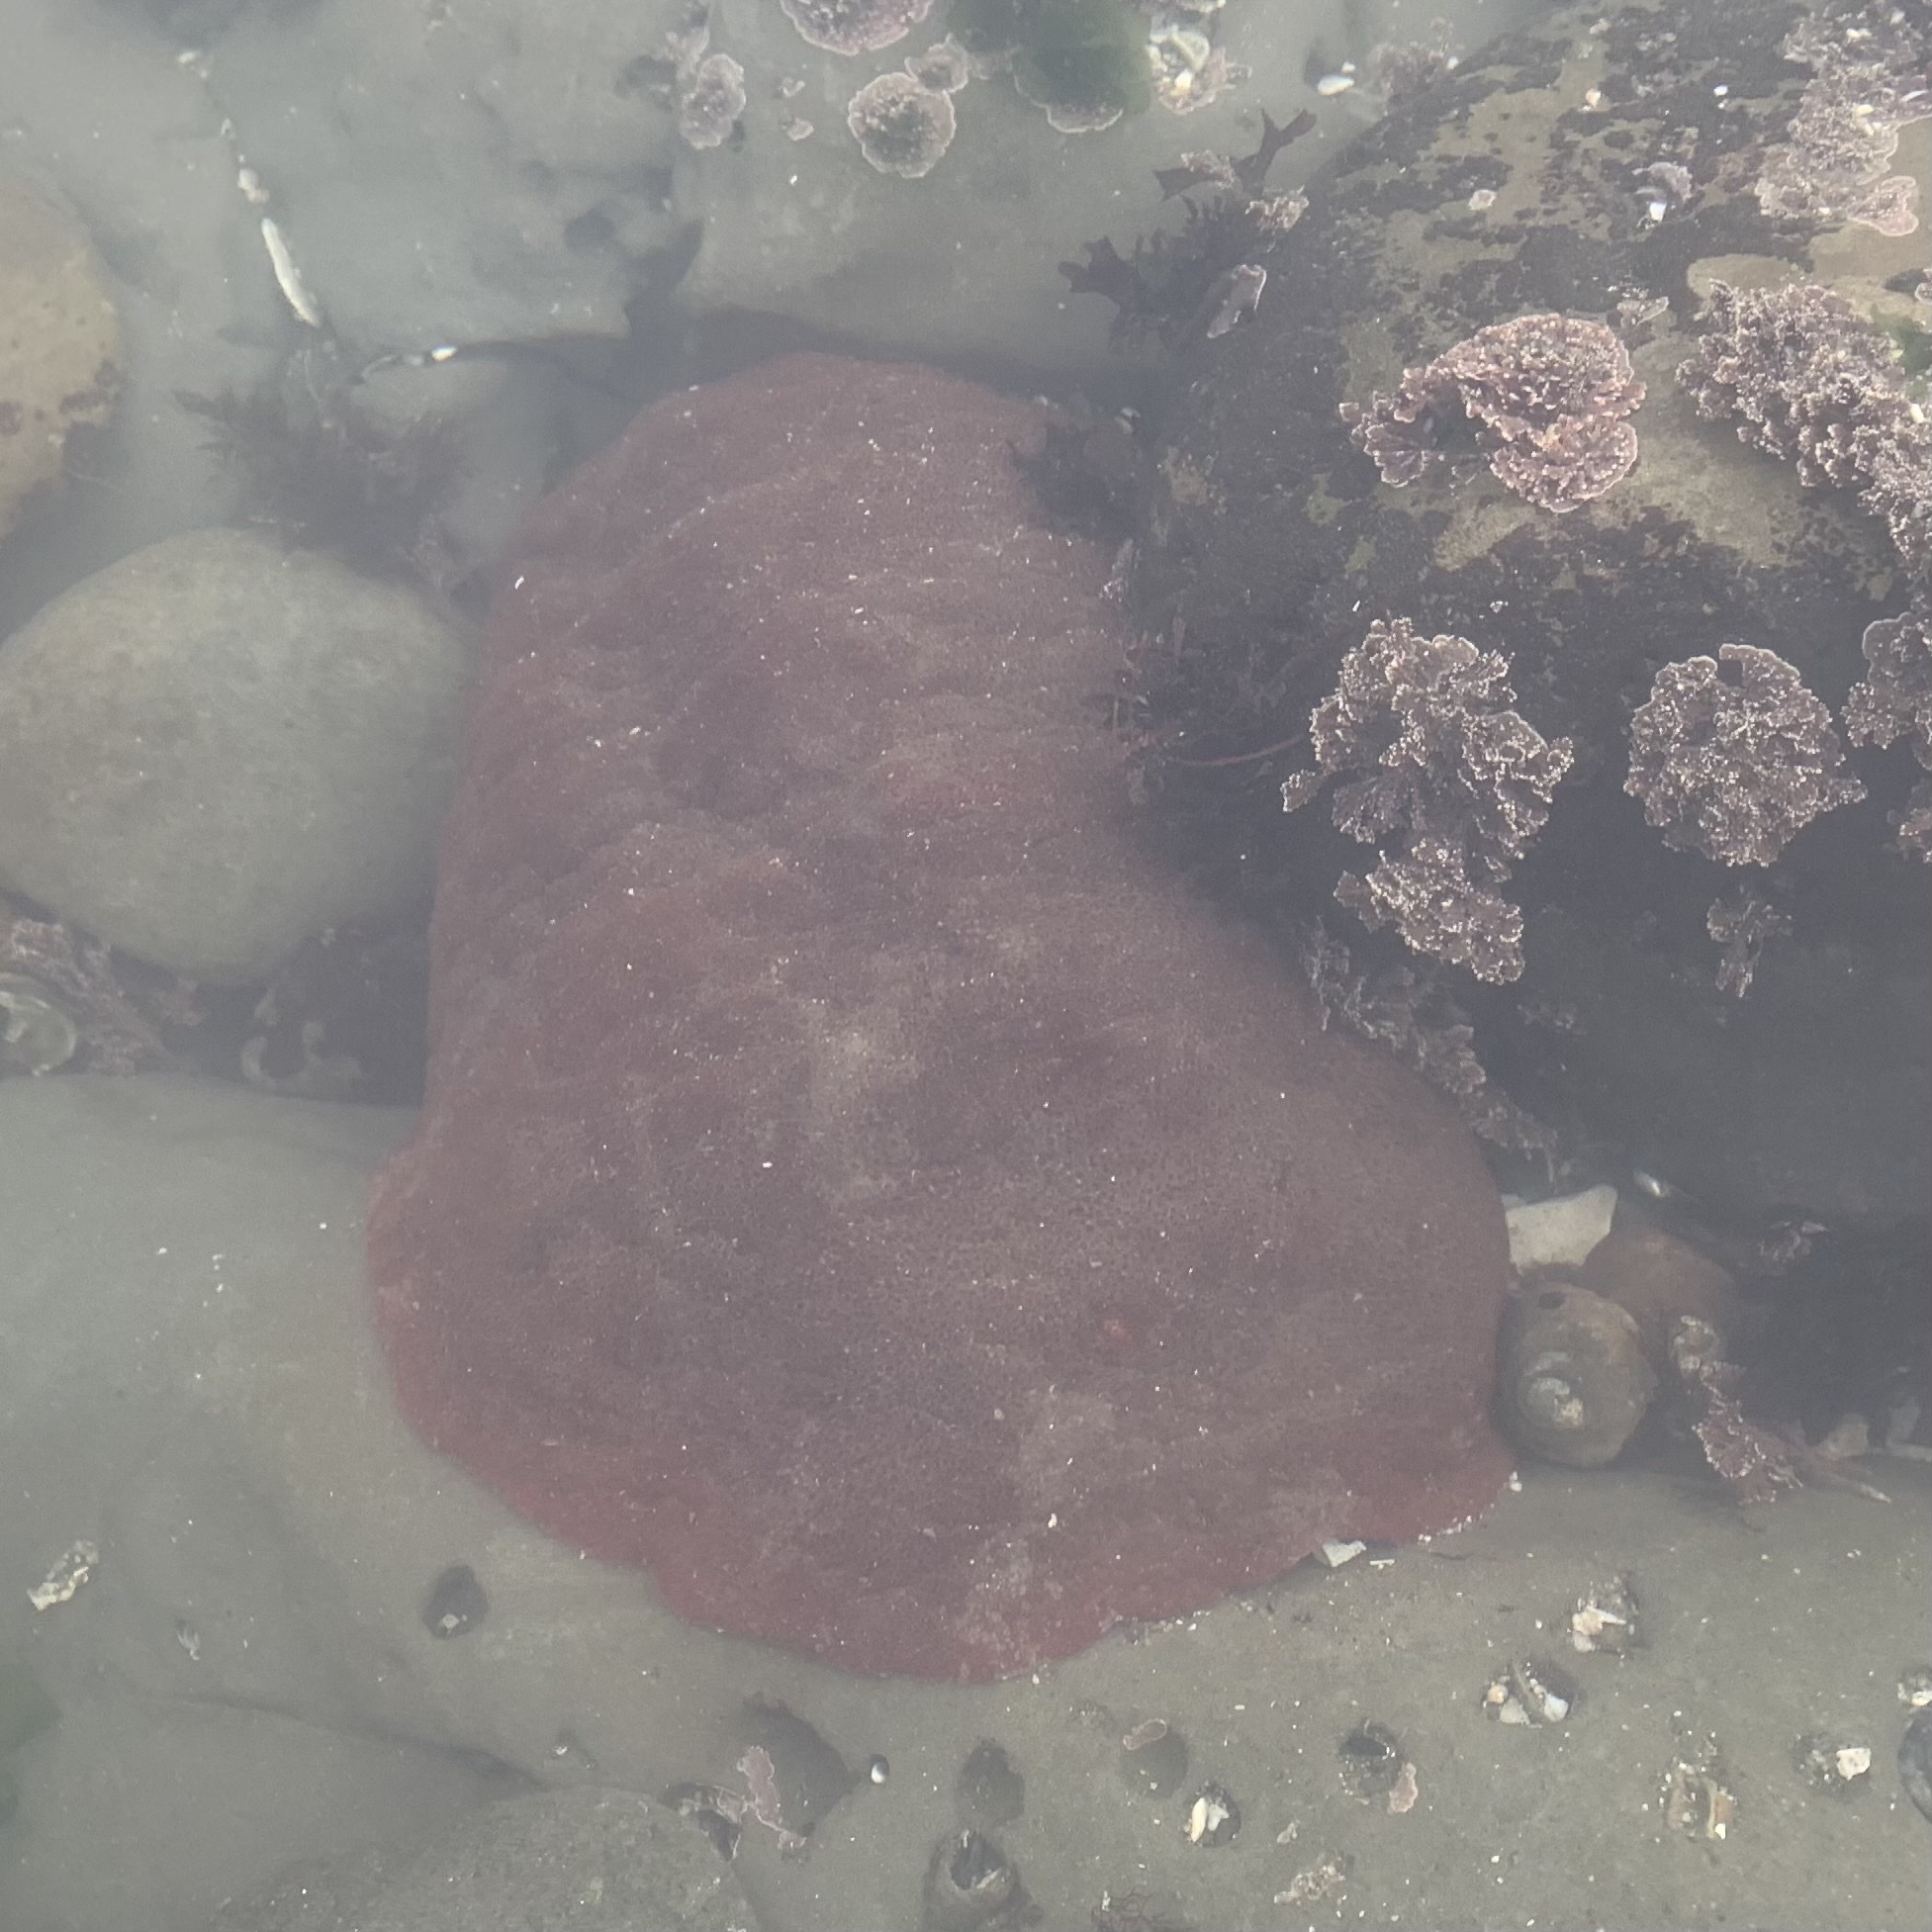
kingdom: Animalia
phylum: Mollusca
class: Polyplacophora
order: Chitonida
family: Acanthochitonidae
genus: Cryptochiton
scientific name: Cryptochiton stelleri
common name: Giant pacific chiton
